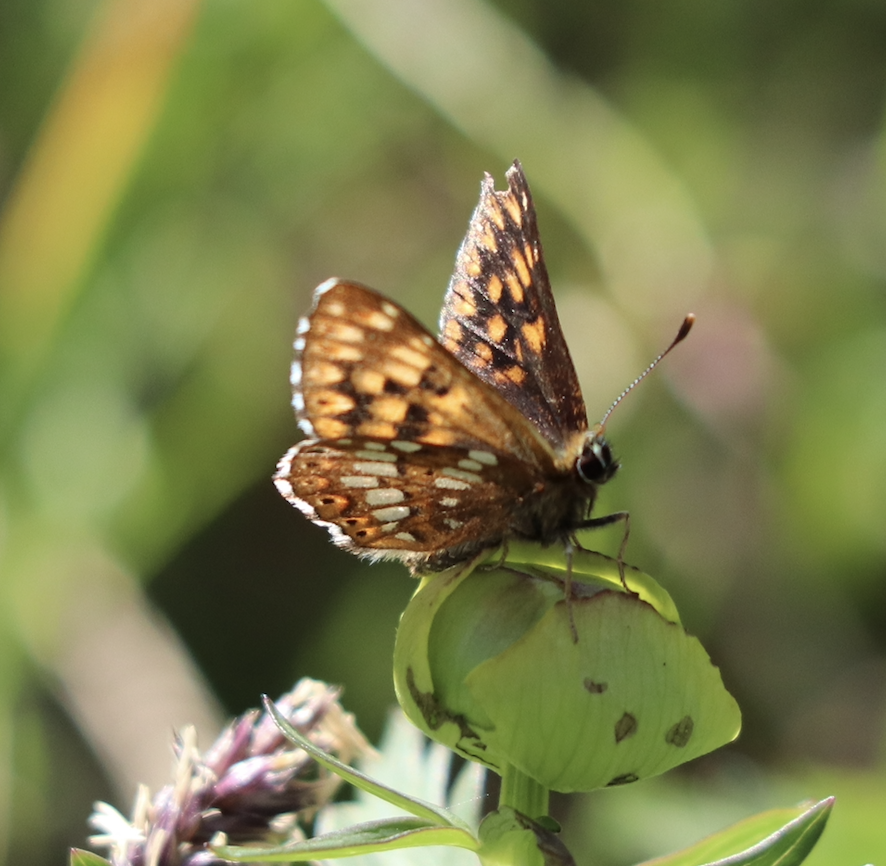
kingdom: Animalia
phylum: Arthropoda
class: Insecta
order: Lepidoptera
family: Riodinidae
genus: Hamearis
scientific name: Hamearis lucina
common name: Duke of burgundy fritillary
